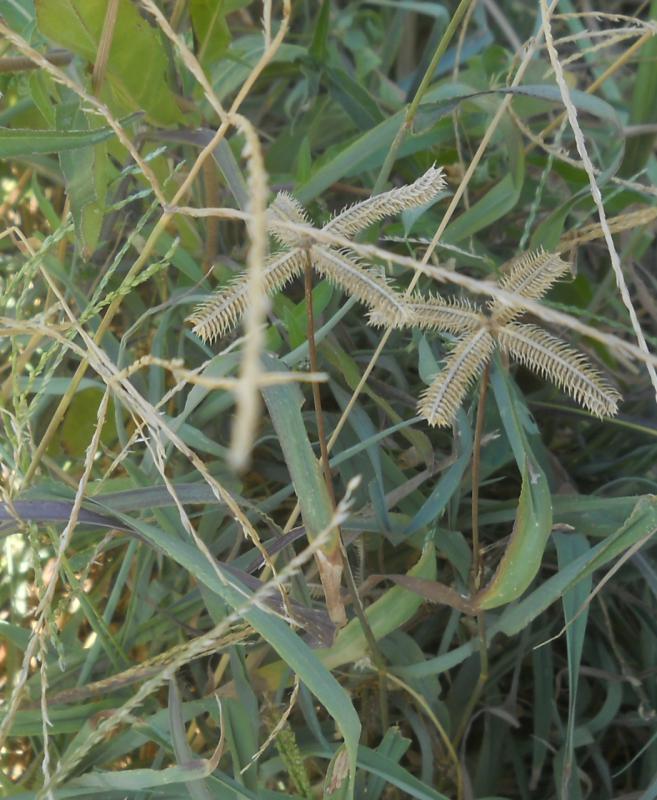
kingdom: Plantae
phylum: Tracheophyta
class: Liliopsida
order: Poales
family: Poaceae
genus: Dactyloctenium
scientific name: Dactyloctenium aegyptium
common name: Egyptian grass
